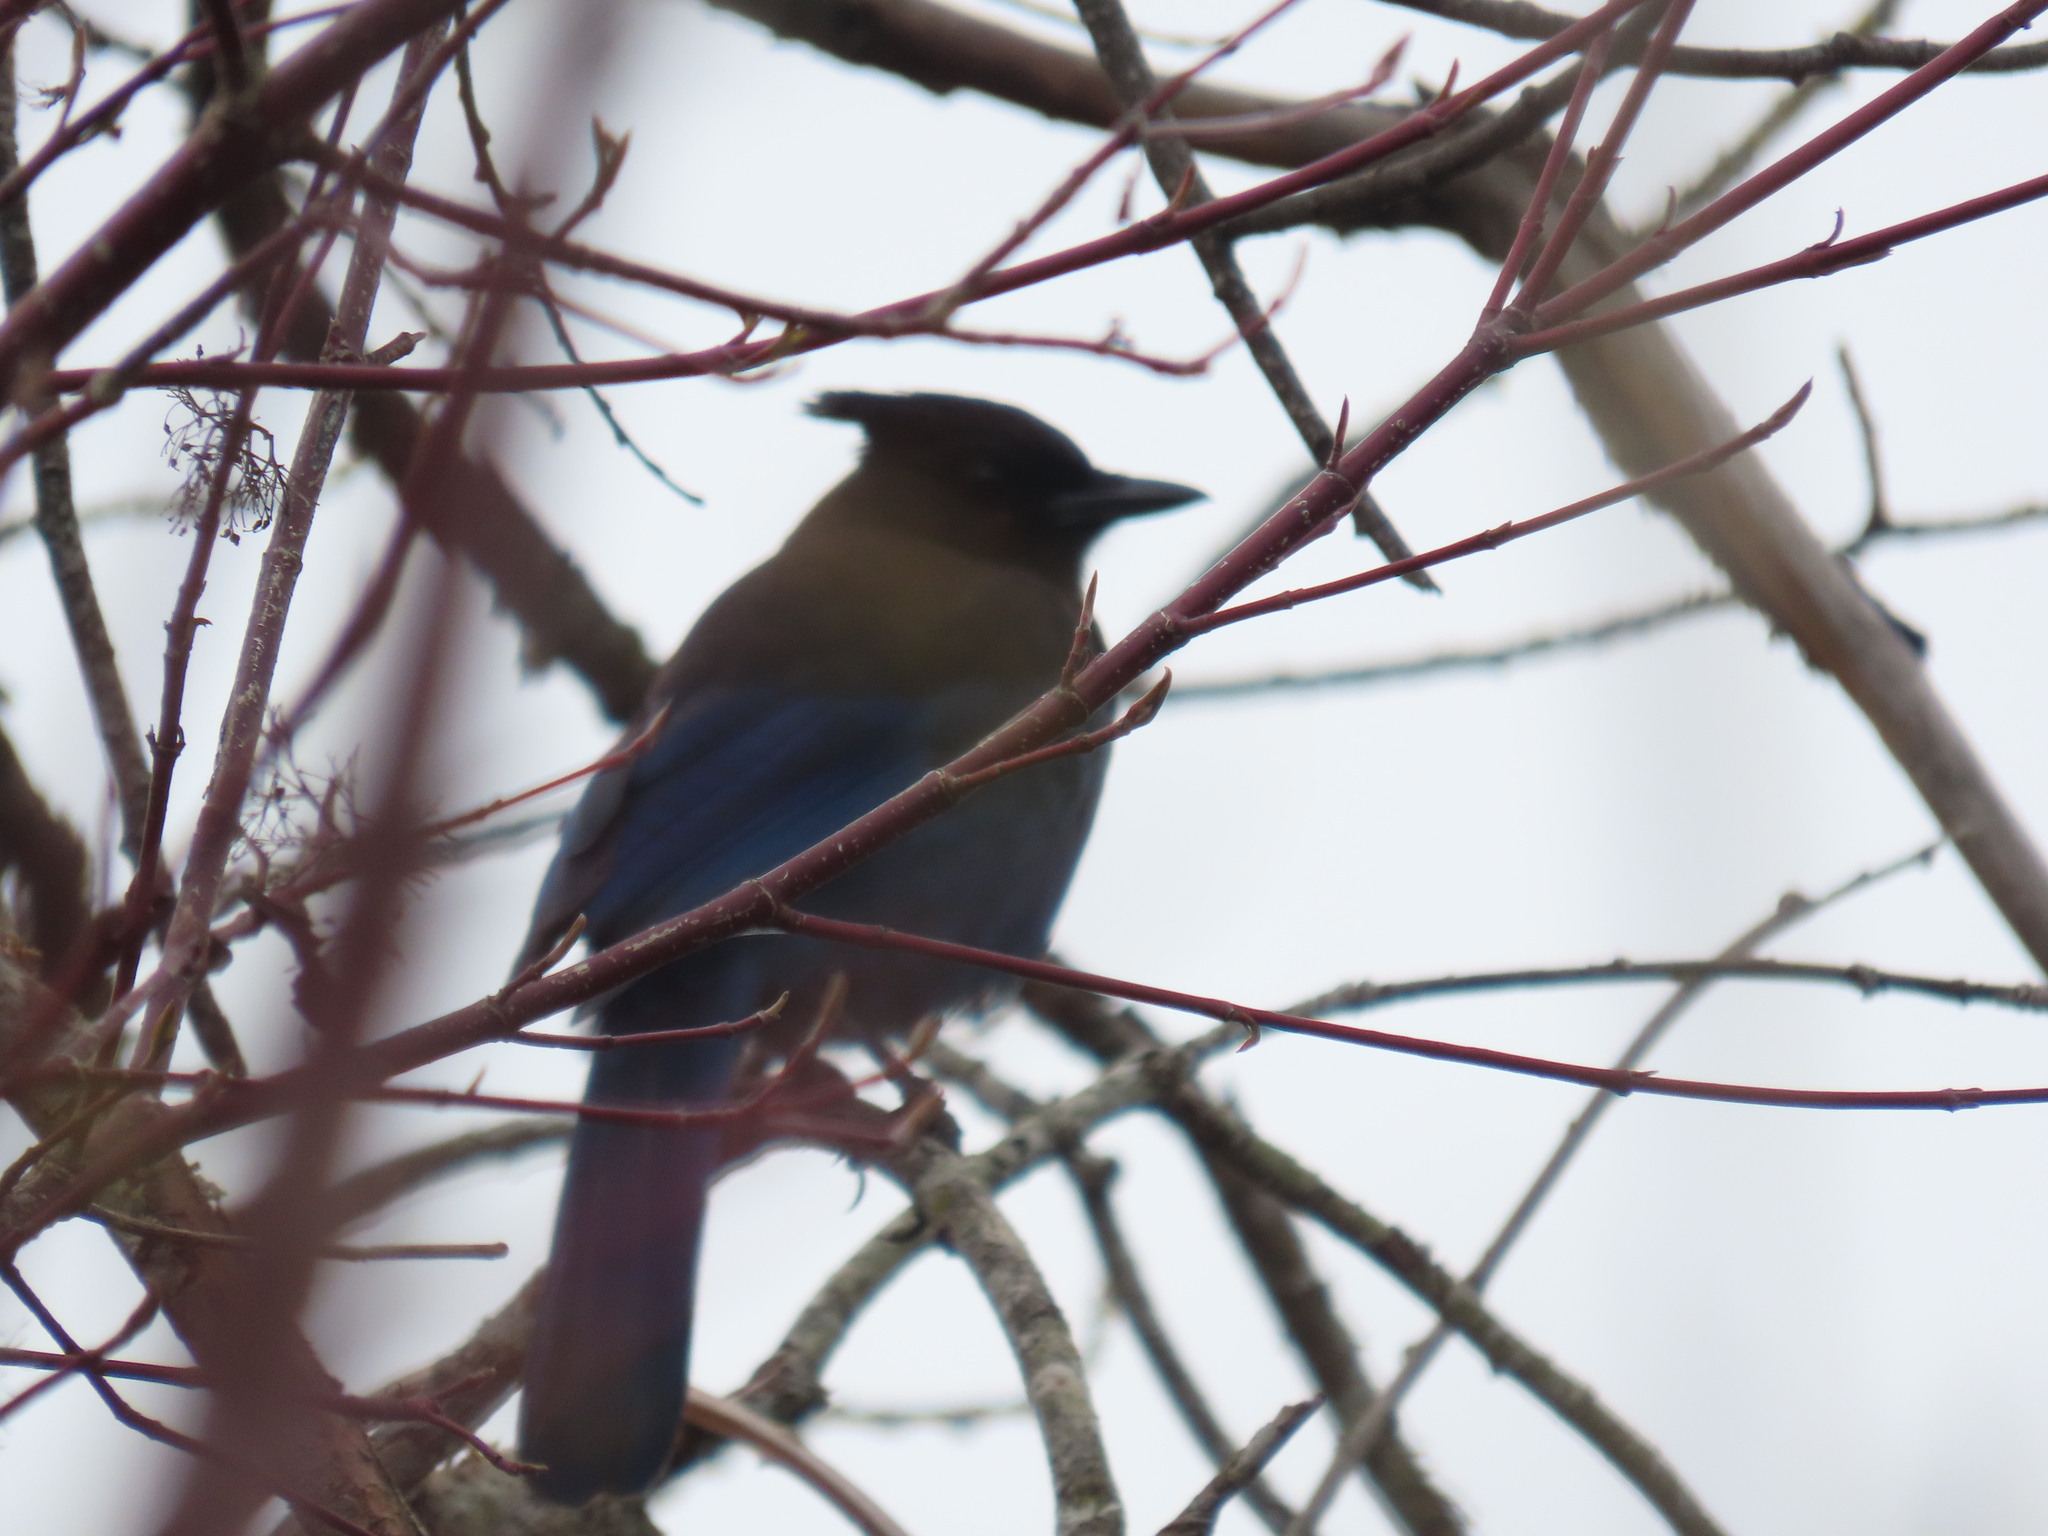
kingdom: Animalia
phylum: Chordata
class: Aves
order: Passeriformes
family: Corvidae
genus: Cyanocitta
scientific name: Cyanocitta stelleri
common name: Steller's jay
